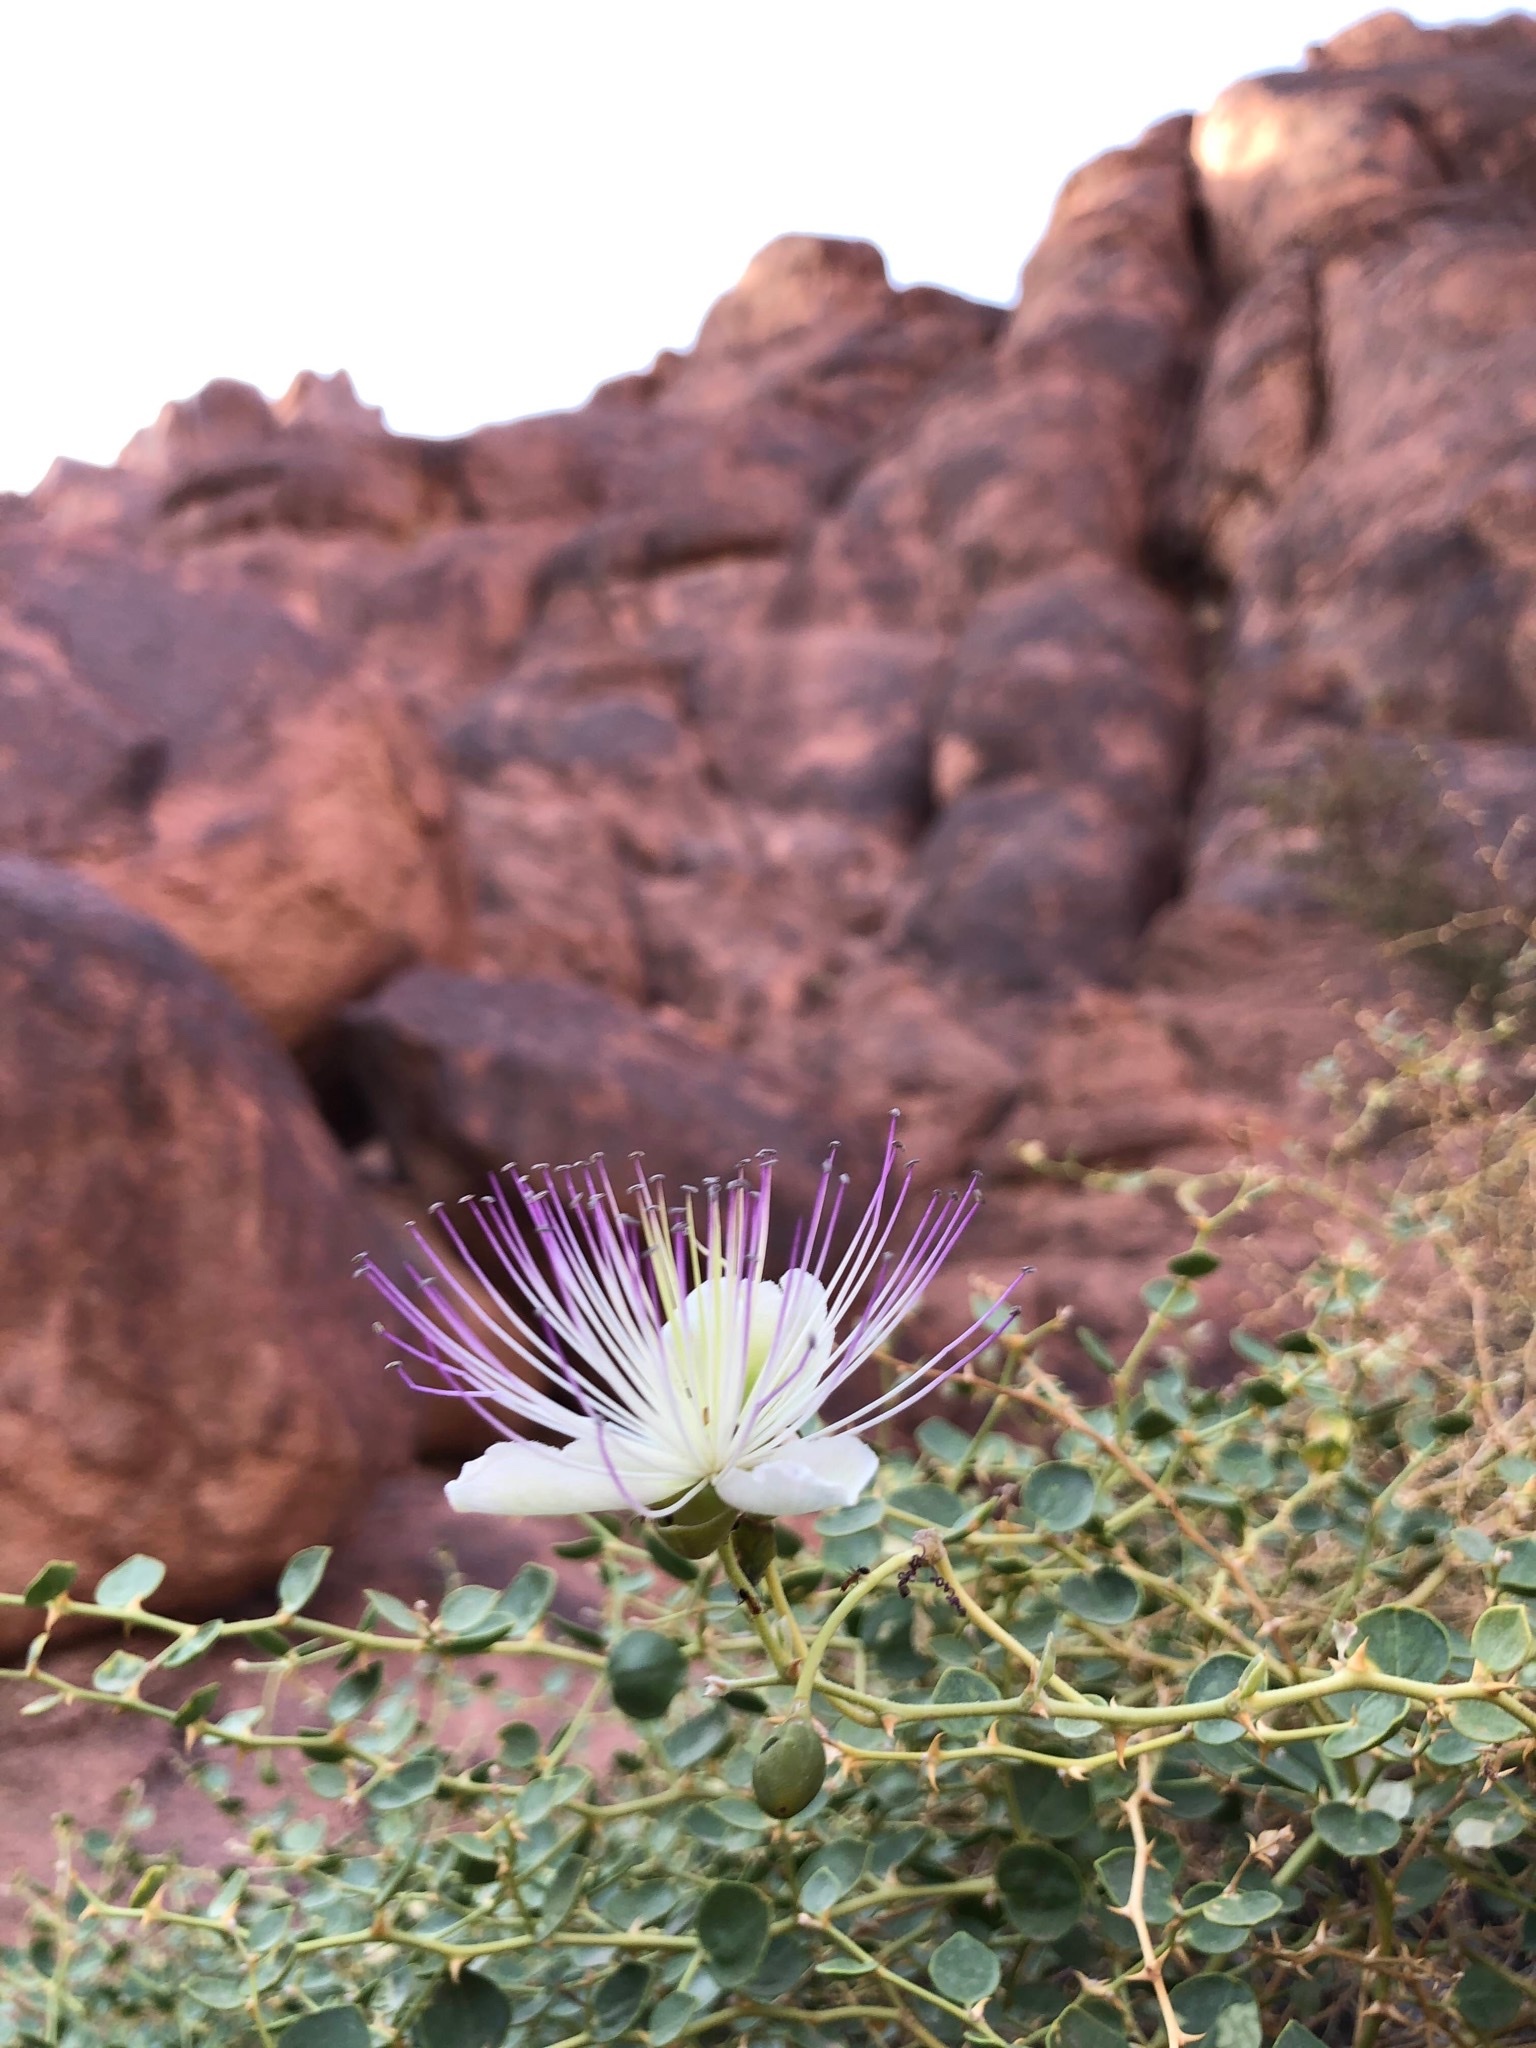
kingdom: Plantae
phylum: Tracheophyta
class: Magnoliopsida
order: Brassicales
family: Capparaceae
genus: Capparis
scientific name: Capparis spinosa
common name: Caper
